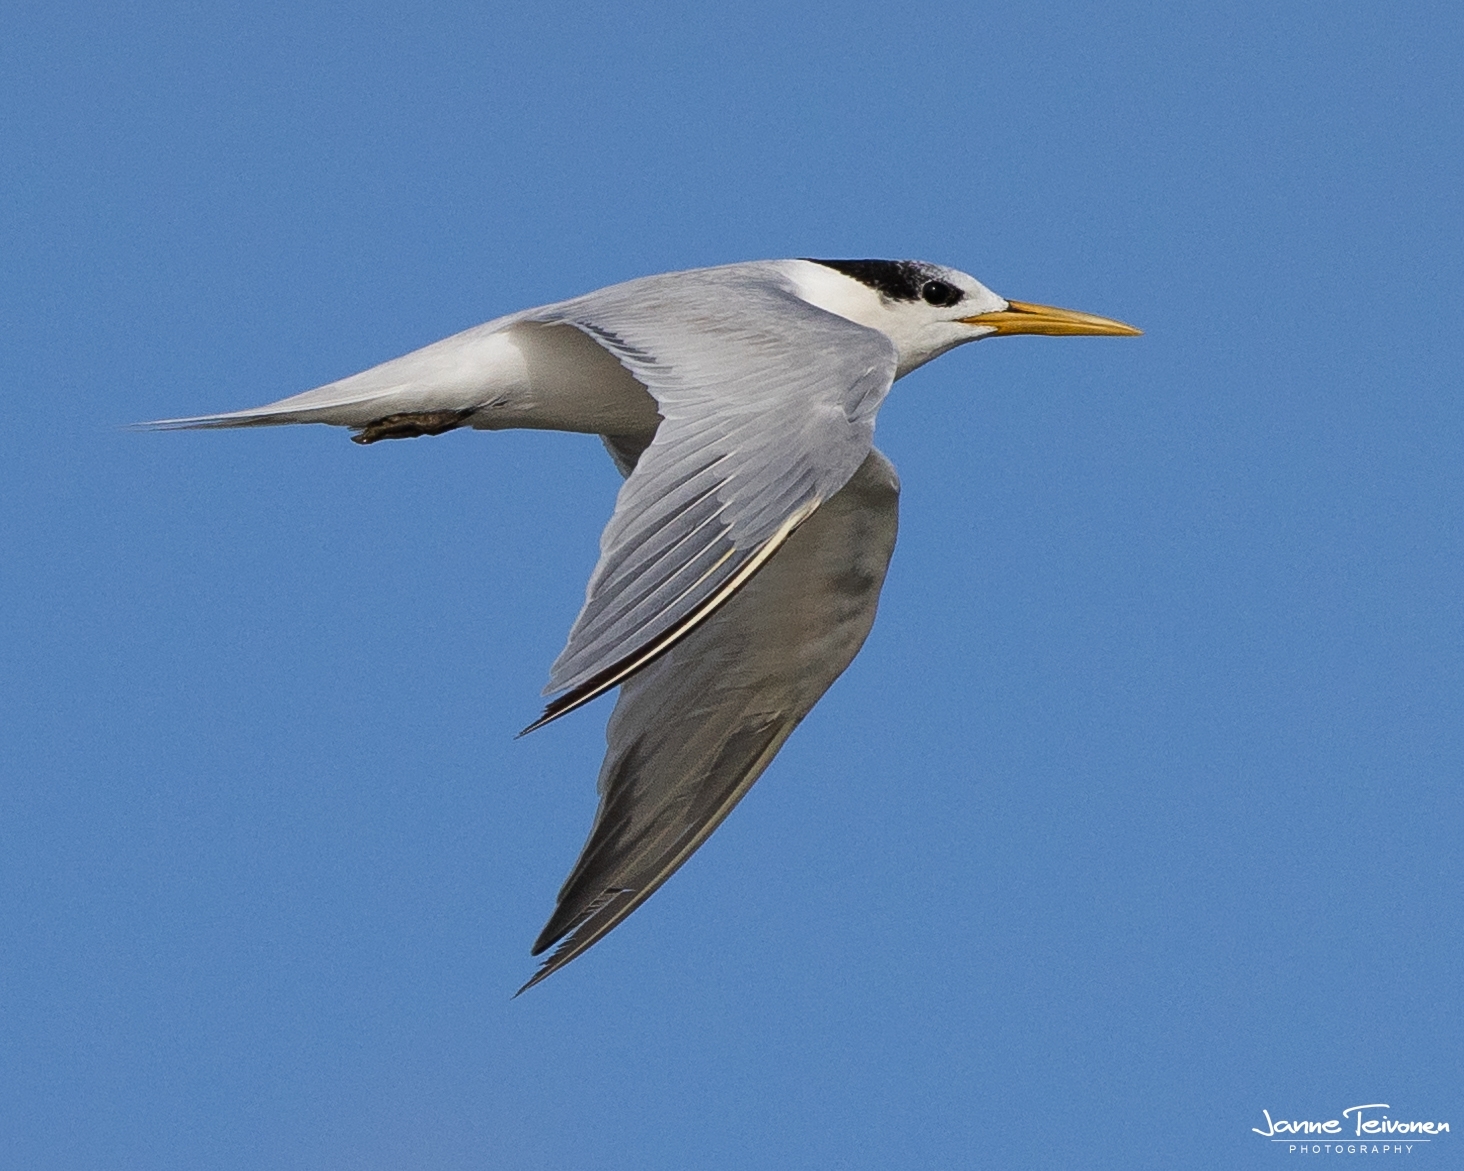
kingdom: Animalia
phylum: Chordata
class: Aves
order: Charadriiformes
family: Laridae
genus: Sternula
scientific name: Sternula superciliaris
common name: Yellow-billed tern
